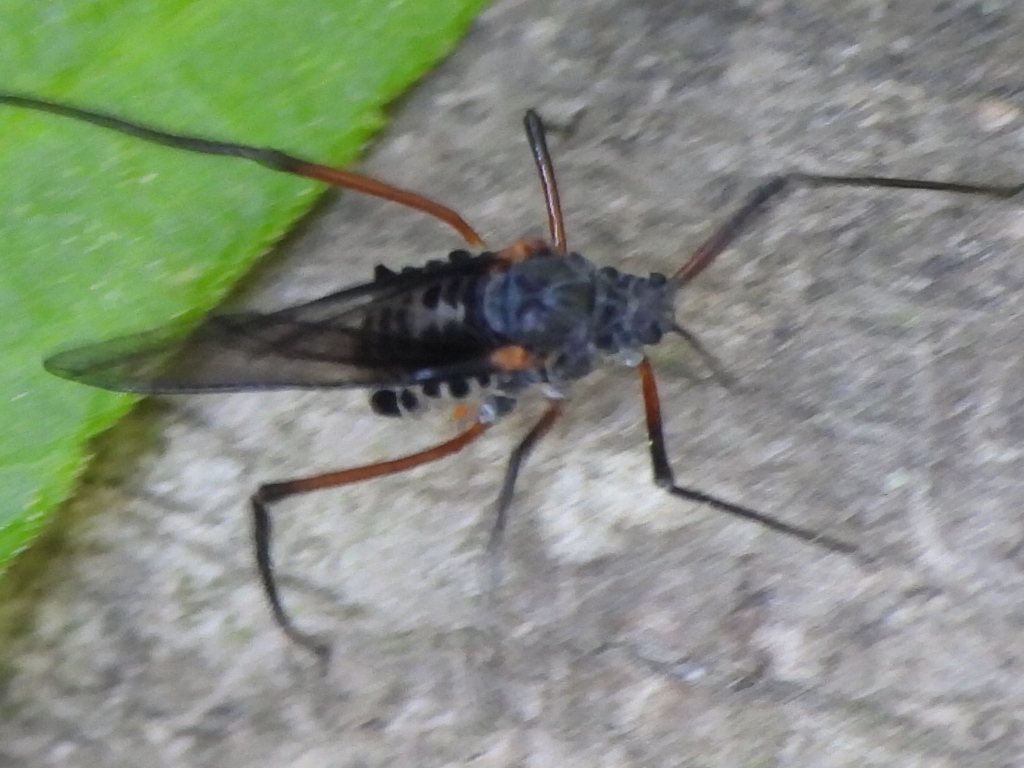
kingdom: Animalia
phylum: Arthropoda
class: Insecta
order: Hemiptera
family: Aphididae
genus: Longistigma
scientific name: Longistigma caryae
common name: Giant bark aphid
